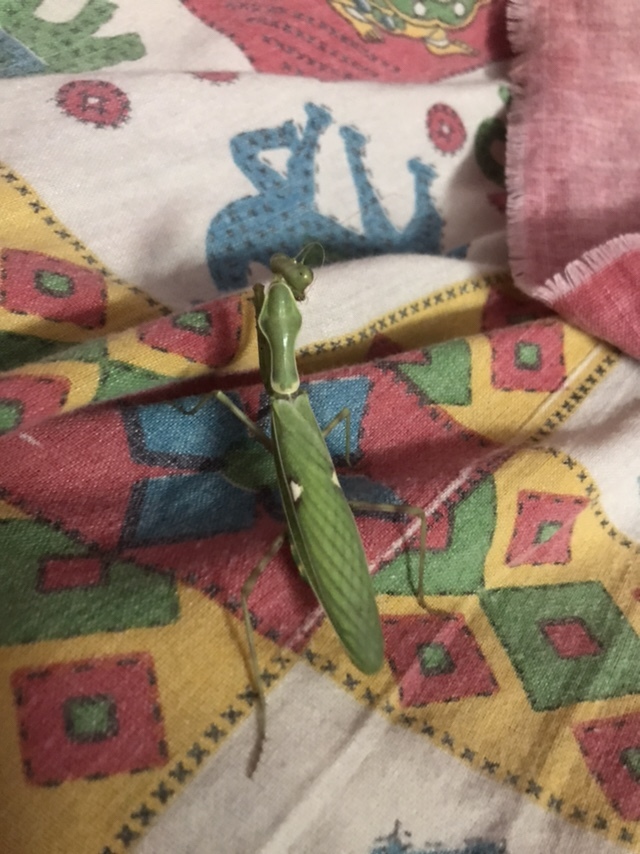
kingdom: Animalia
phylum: Arthropoda
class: Insecta
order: Mantodea
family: Mantidae
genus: Hierodula
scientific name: Hierodula coarctata
